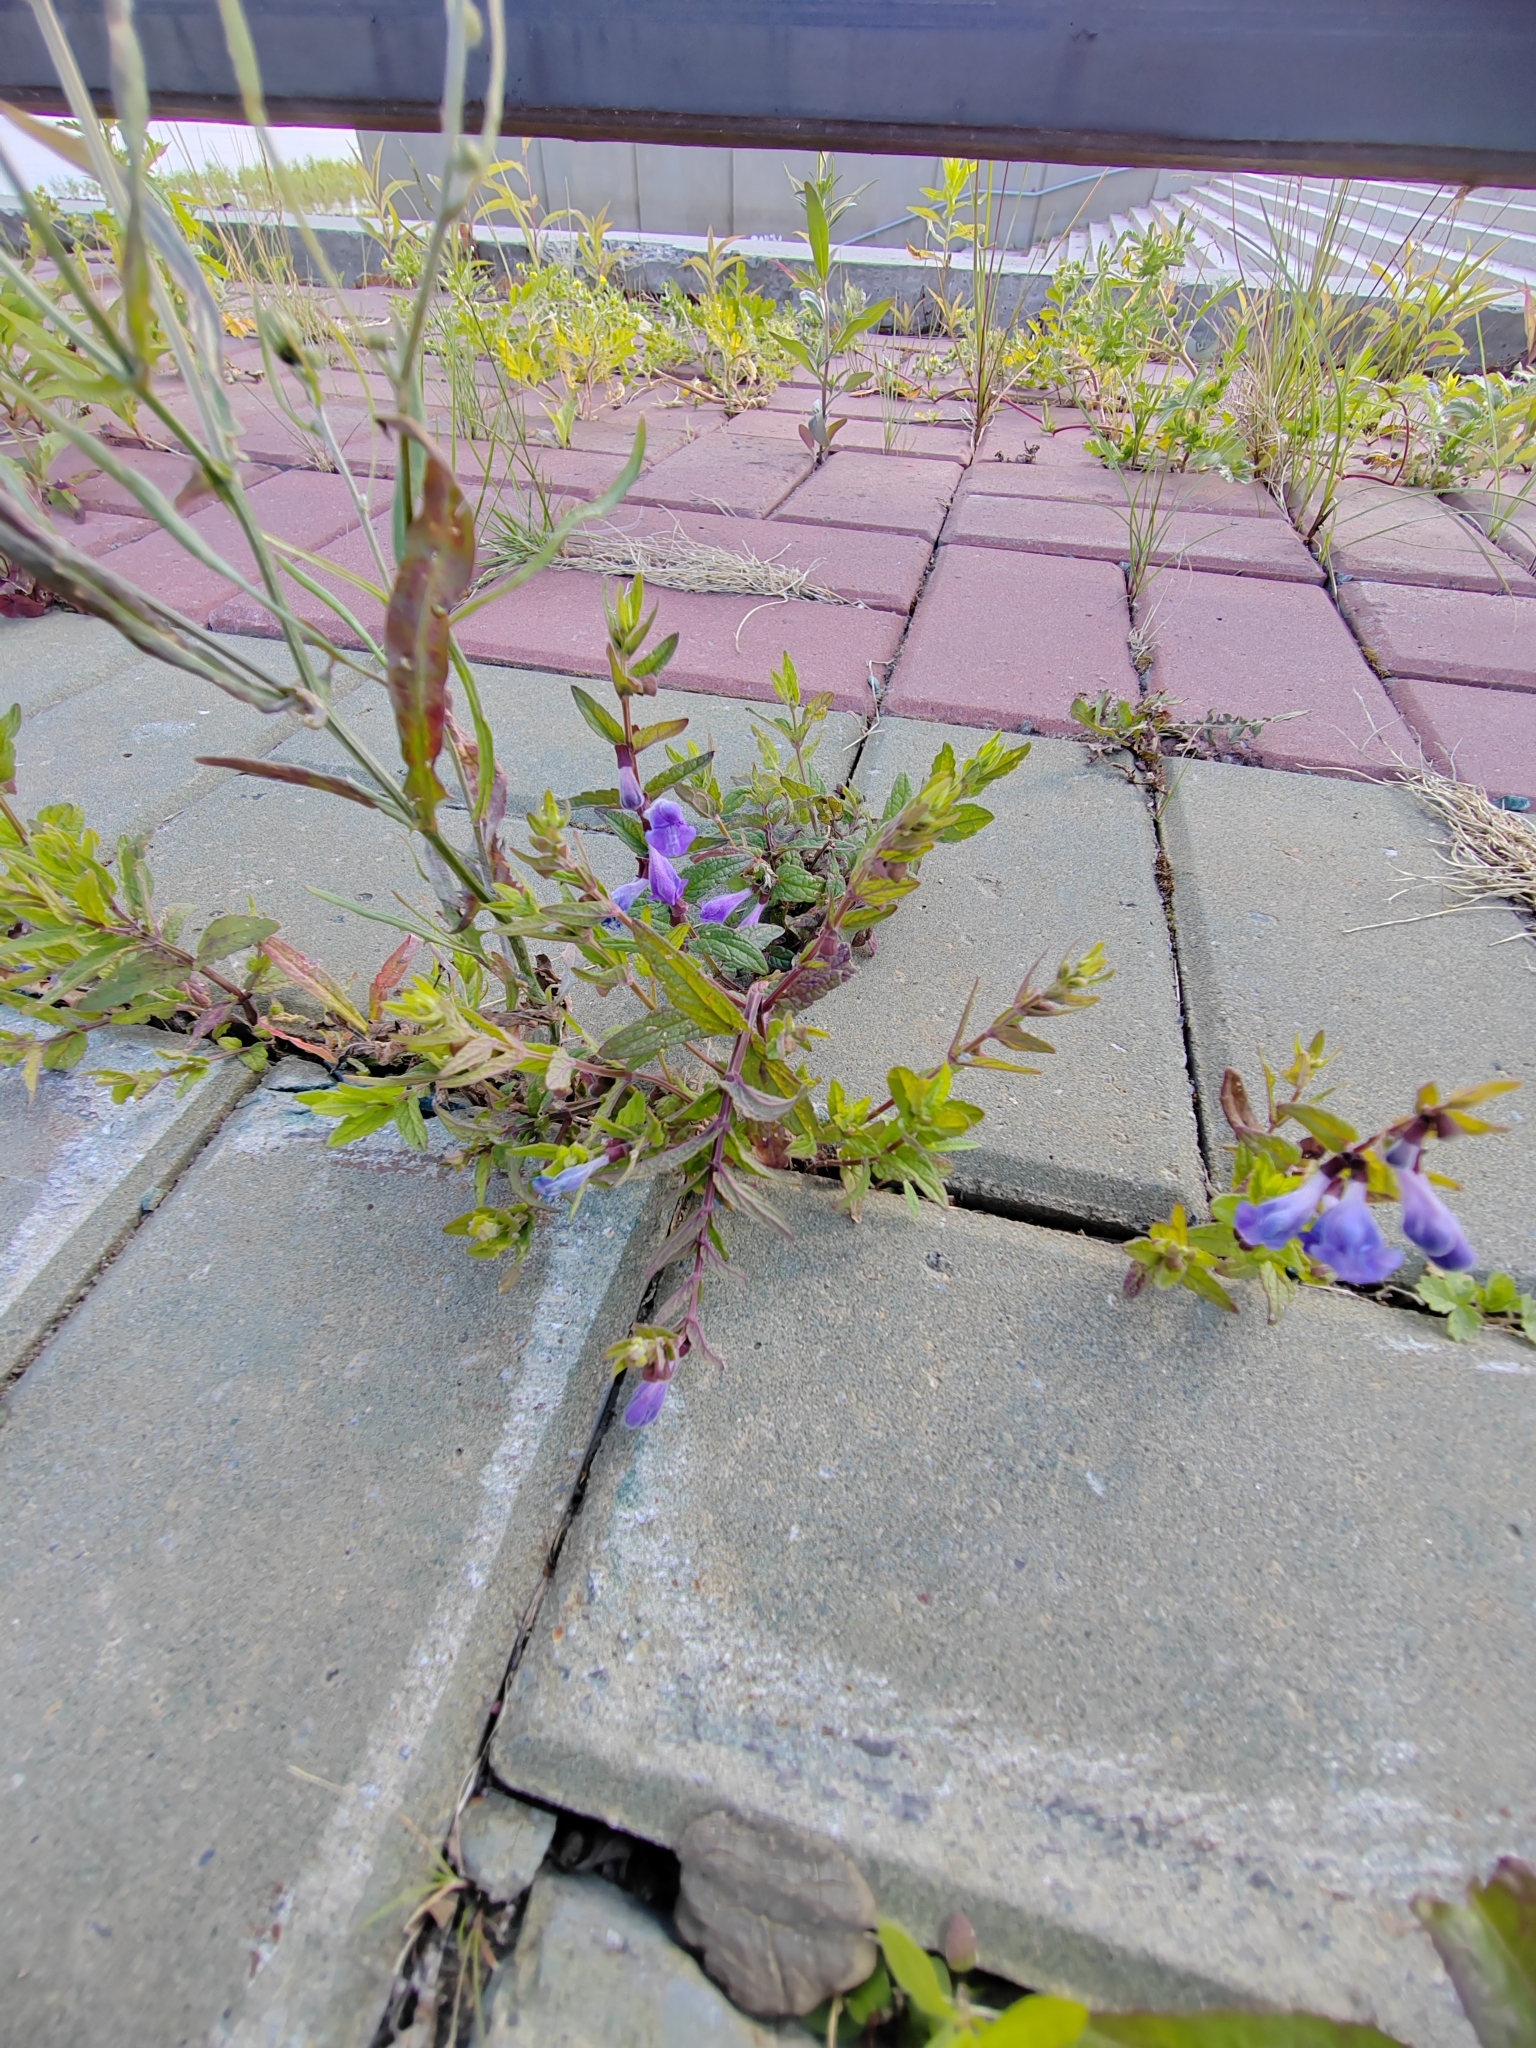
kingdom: Plantae
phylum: Tracheophyta
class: Magnoliopsida
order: Lamiales
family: Lamiaceae
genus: Scutellaria
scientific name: Scutellaria galericulata
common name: Skullcap
